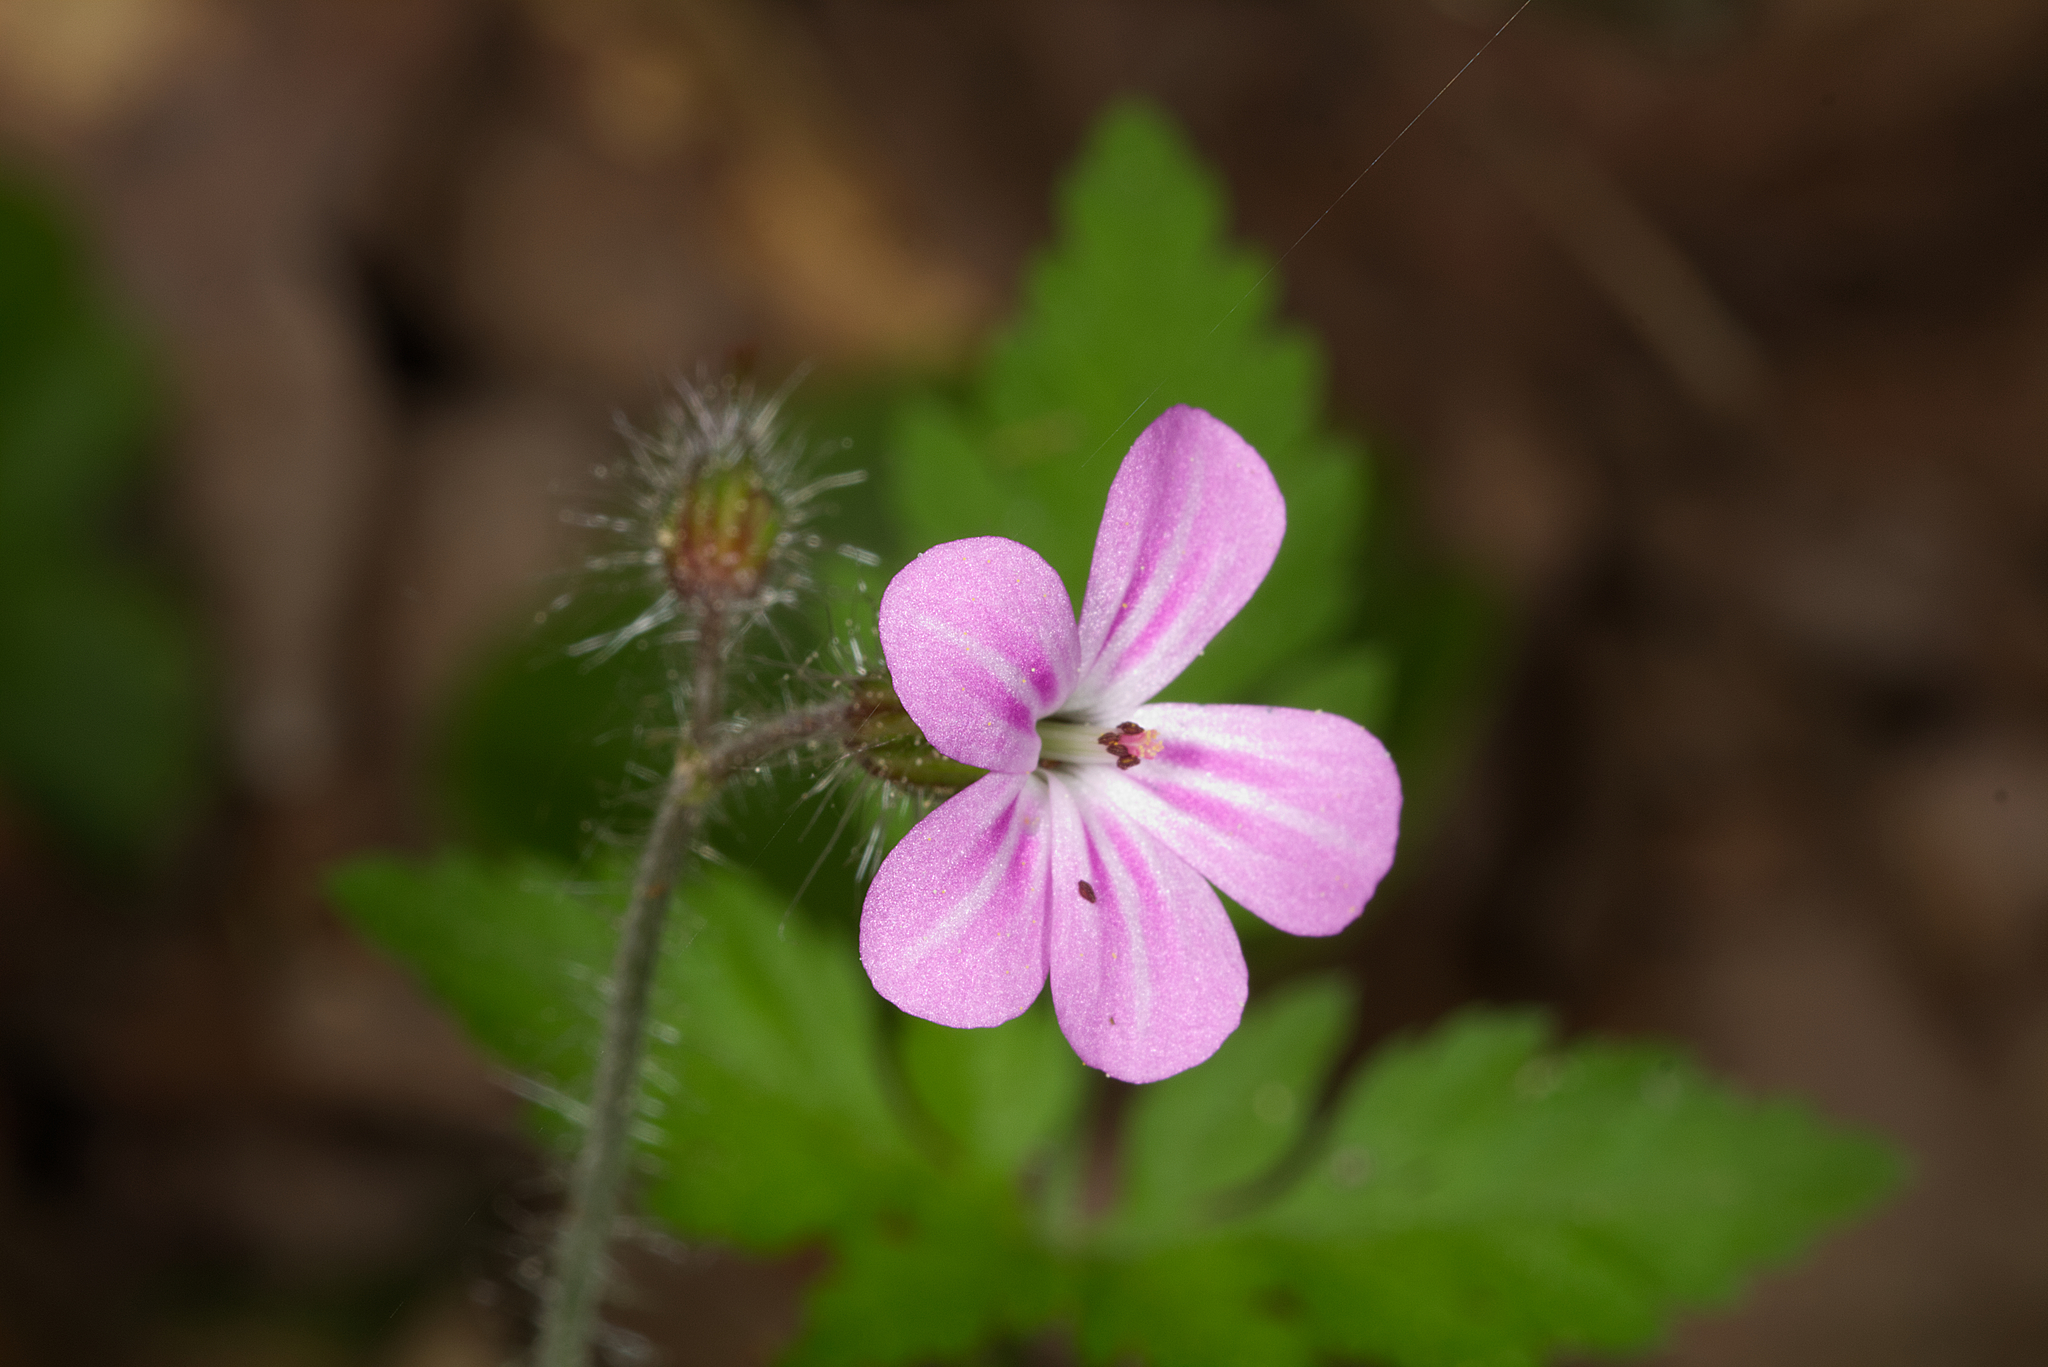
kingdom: Plantae
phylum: Tracheophyta
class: Magnoliopsida
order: Geraniales
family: Geraniaceae
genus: Geranium
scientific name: Geranium robertianum
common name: Herb-robert
